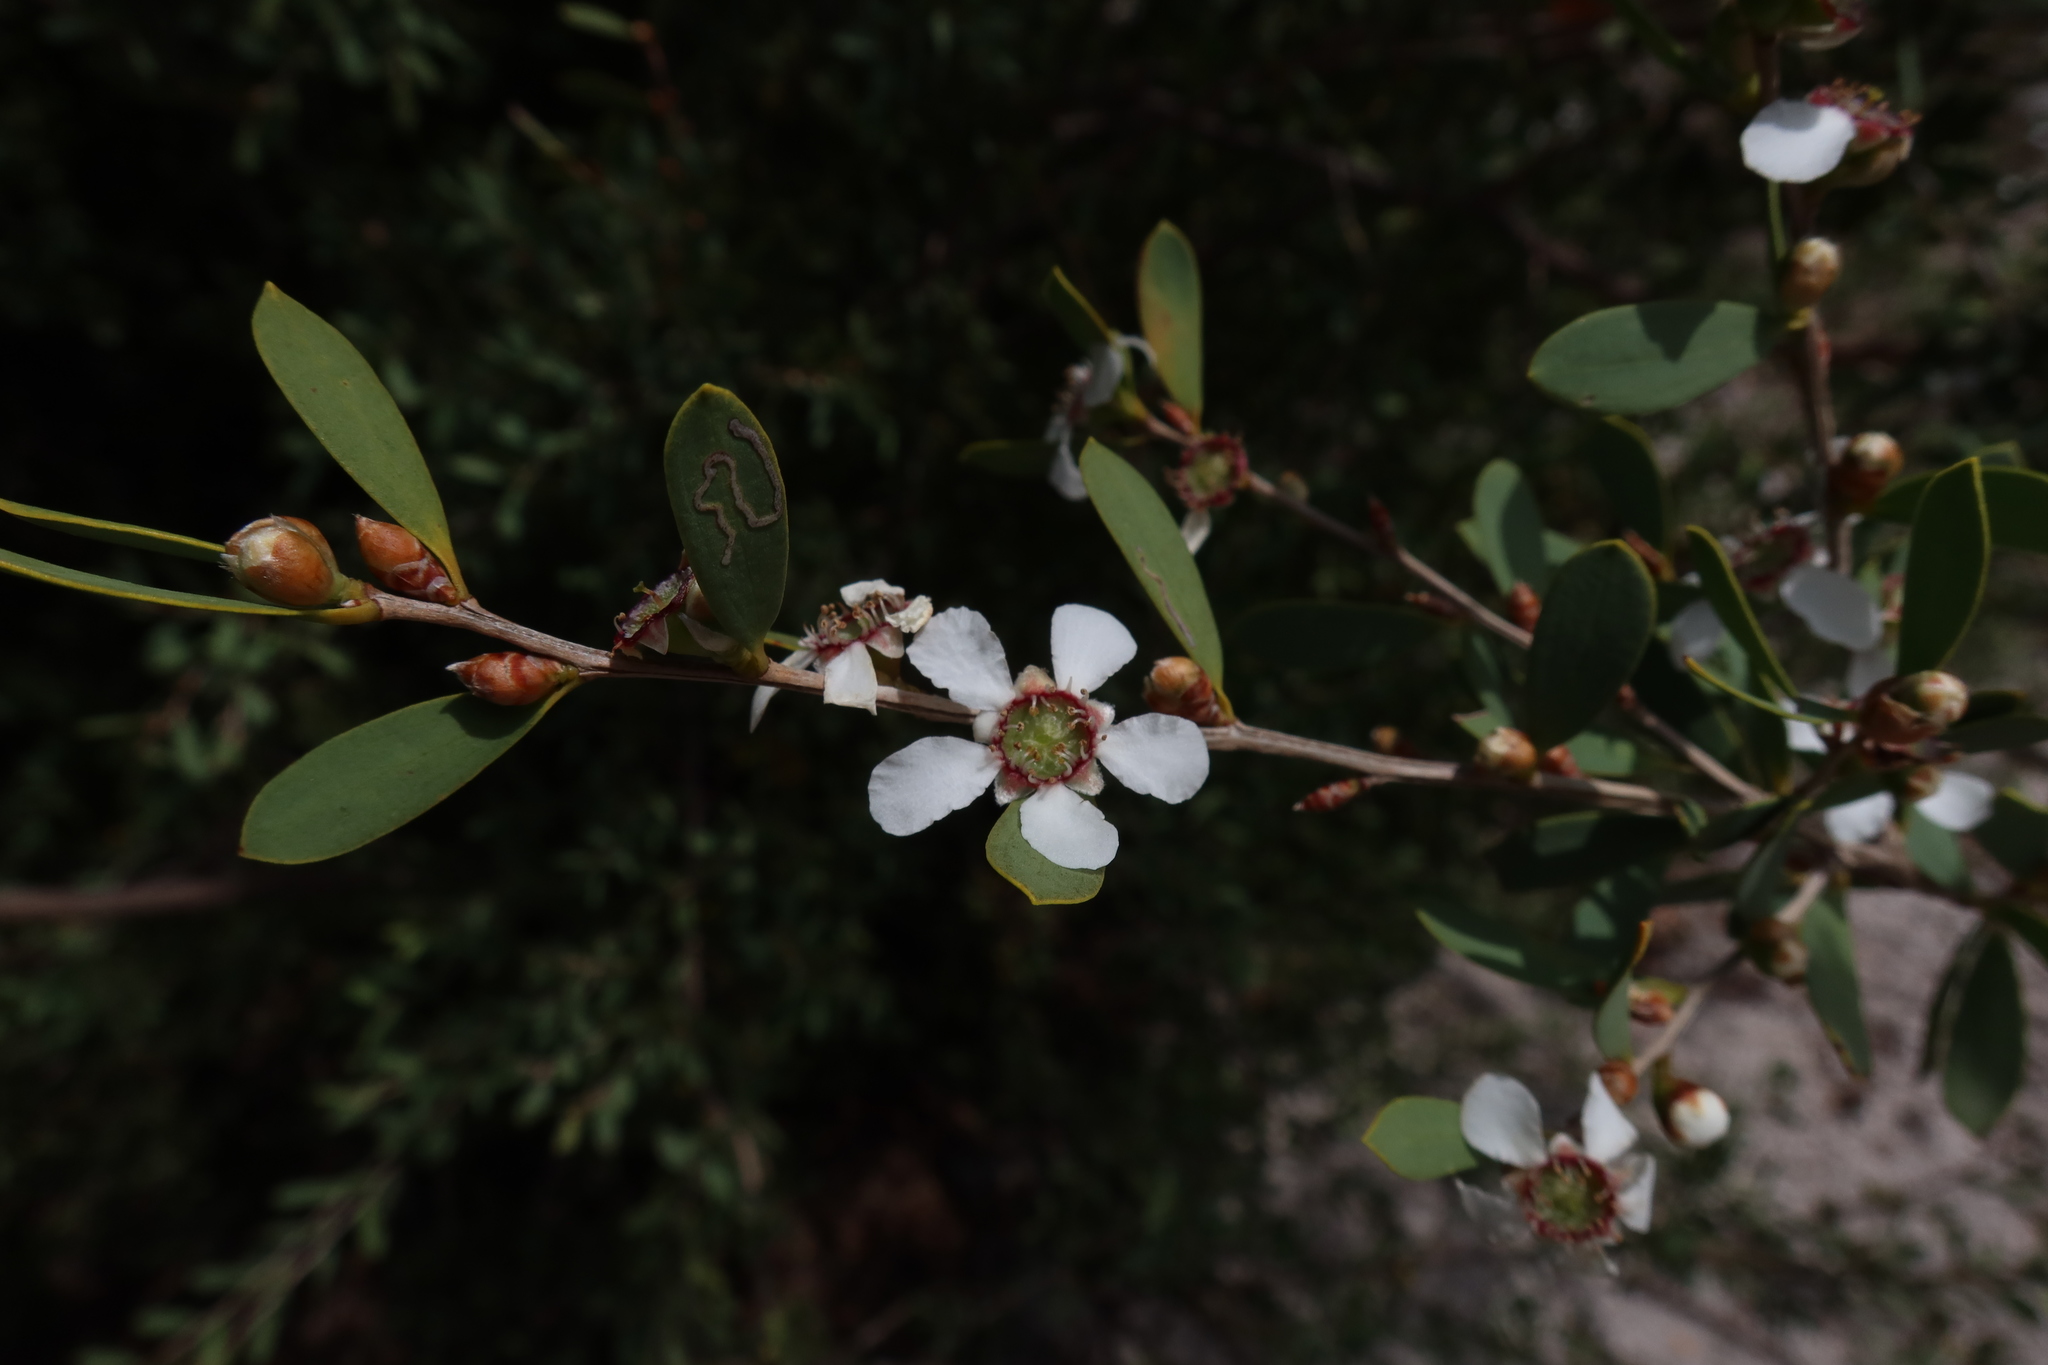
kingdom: Plantae
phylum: Tracheophyta
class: Magnoliopsida
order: Myrtales
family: Myrtaceae
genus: Leptospermum
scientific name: Leptospermum laevigatum
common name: Australian teatree
